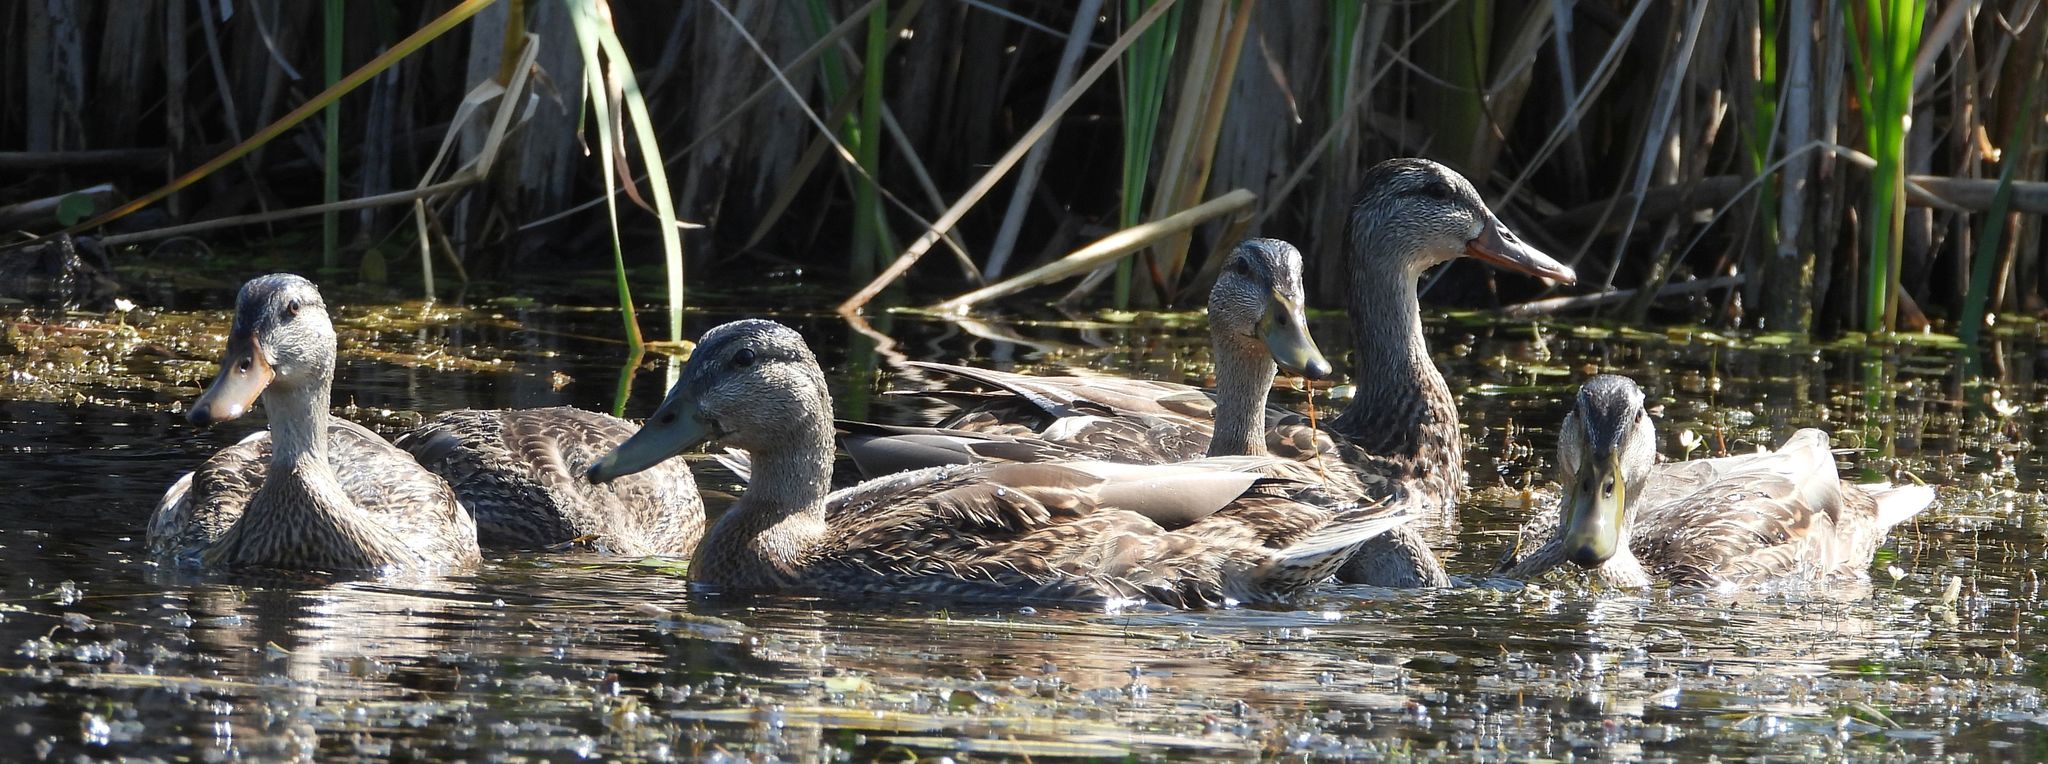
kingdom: Animalia
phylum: Chordata
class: Aves
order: Anseriformes
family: Anatidae
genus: Anas
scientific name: Anas platyrhynchos
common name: Mallard
